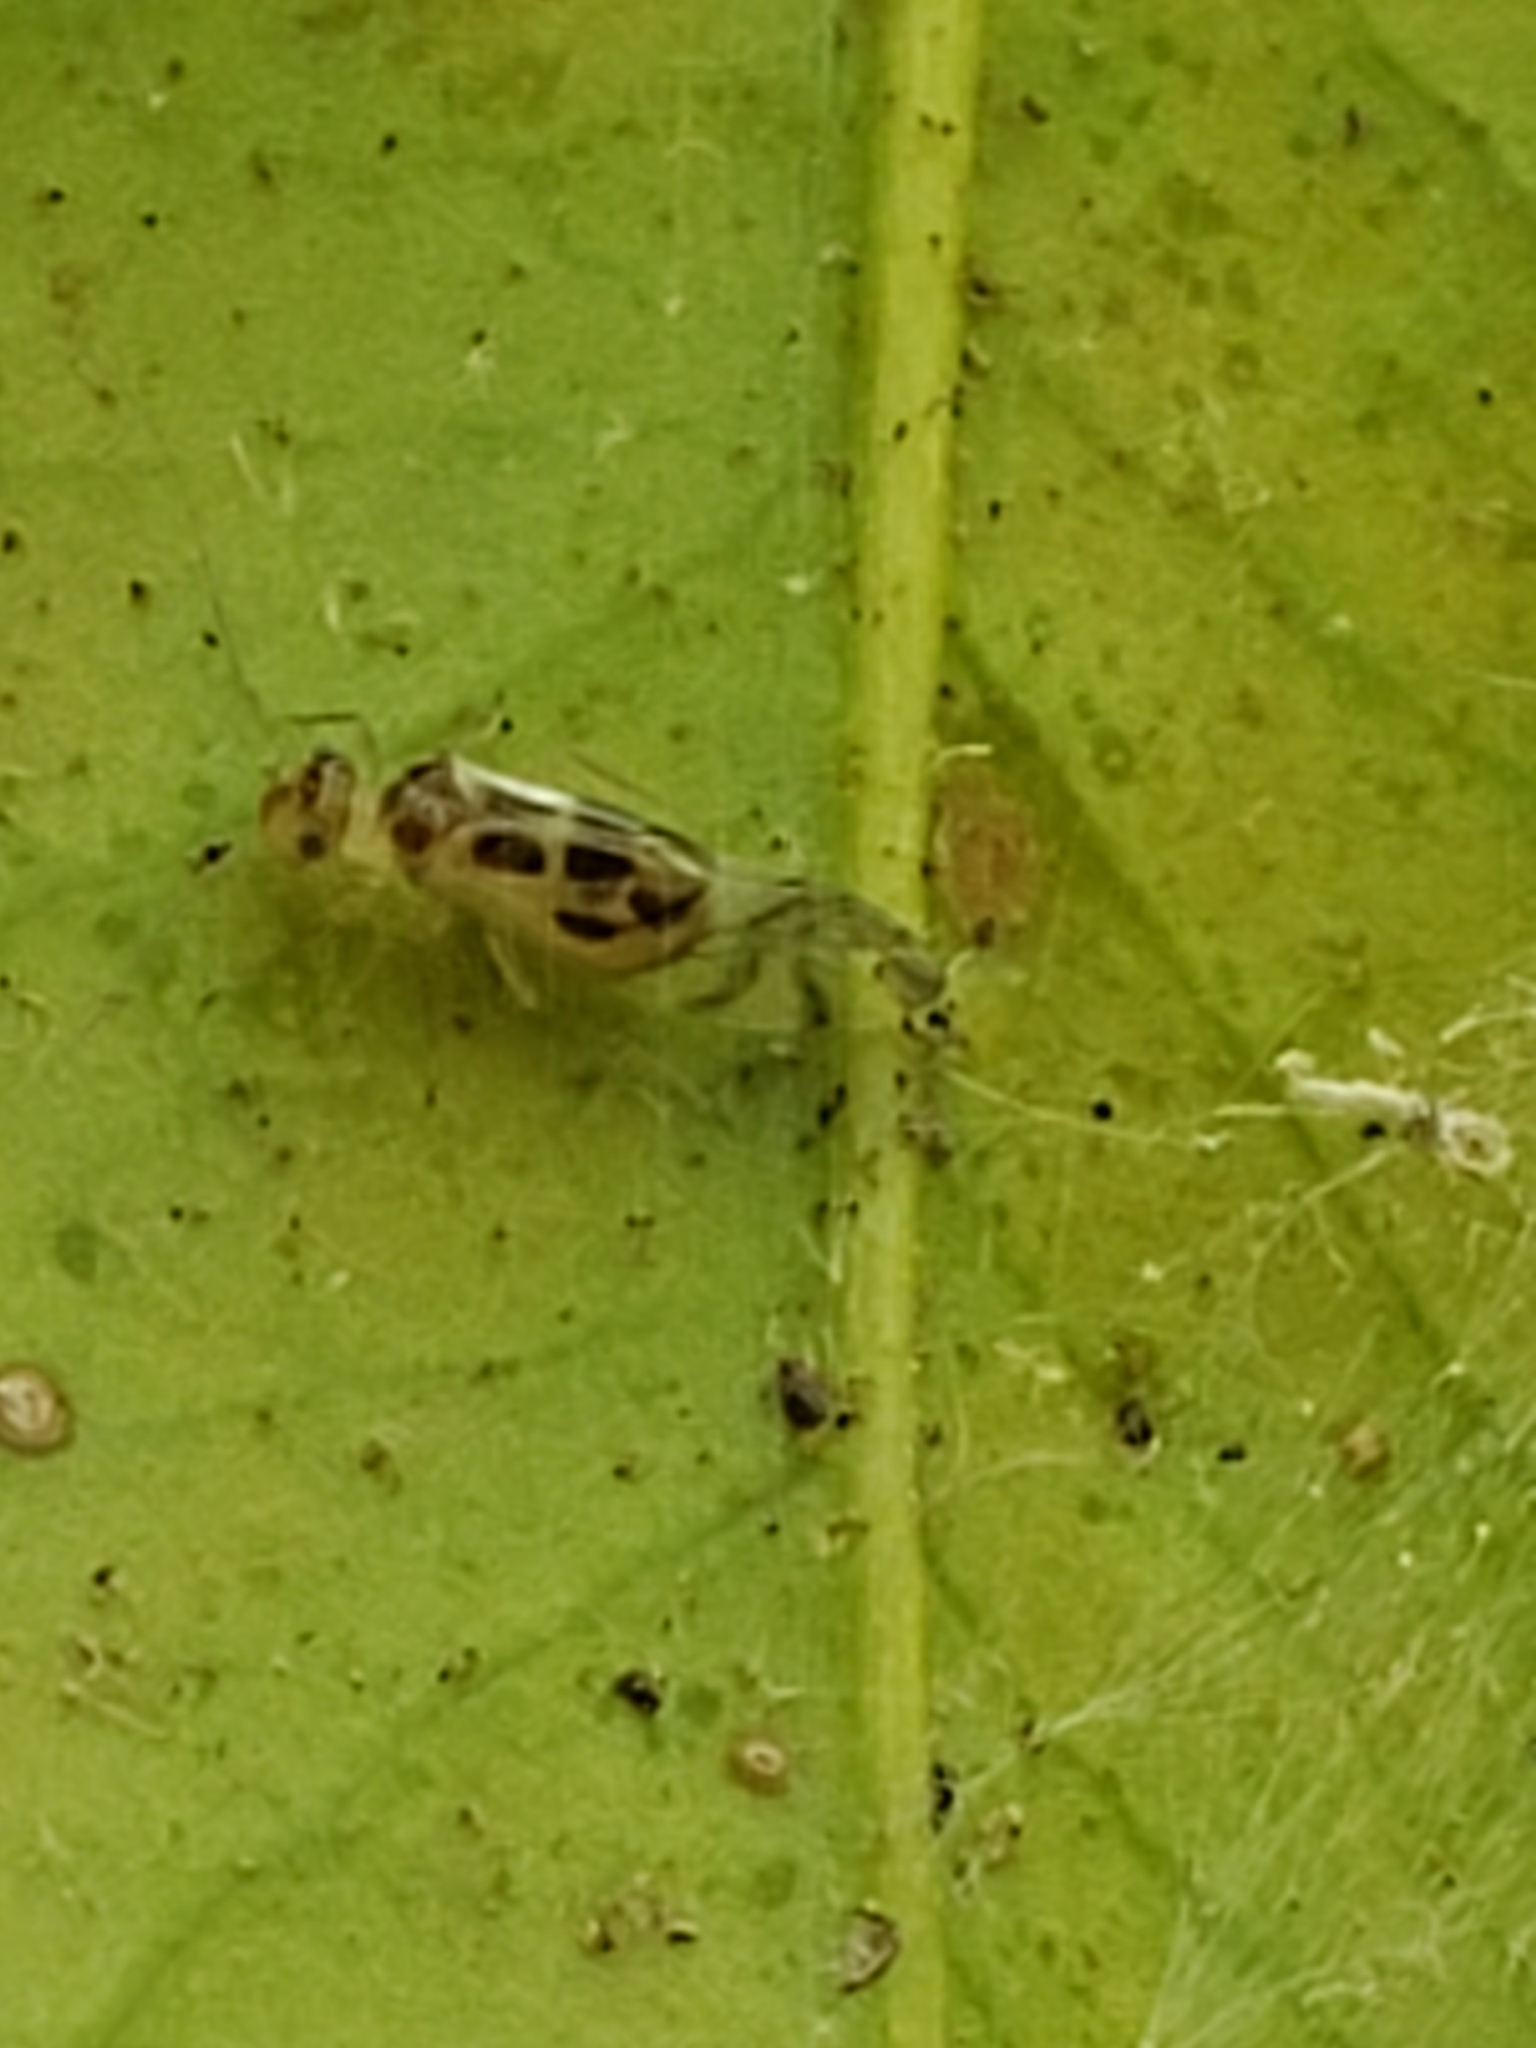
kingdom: Animalia
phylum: Arthropoda
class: Insecta
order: Psocodea
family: Stenopsocidae
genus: Graphopsocus
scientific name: Graphopsocus cruciatus
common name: Lizard bark louse
